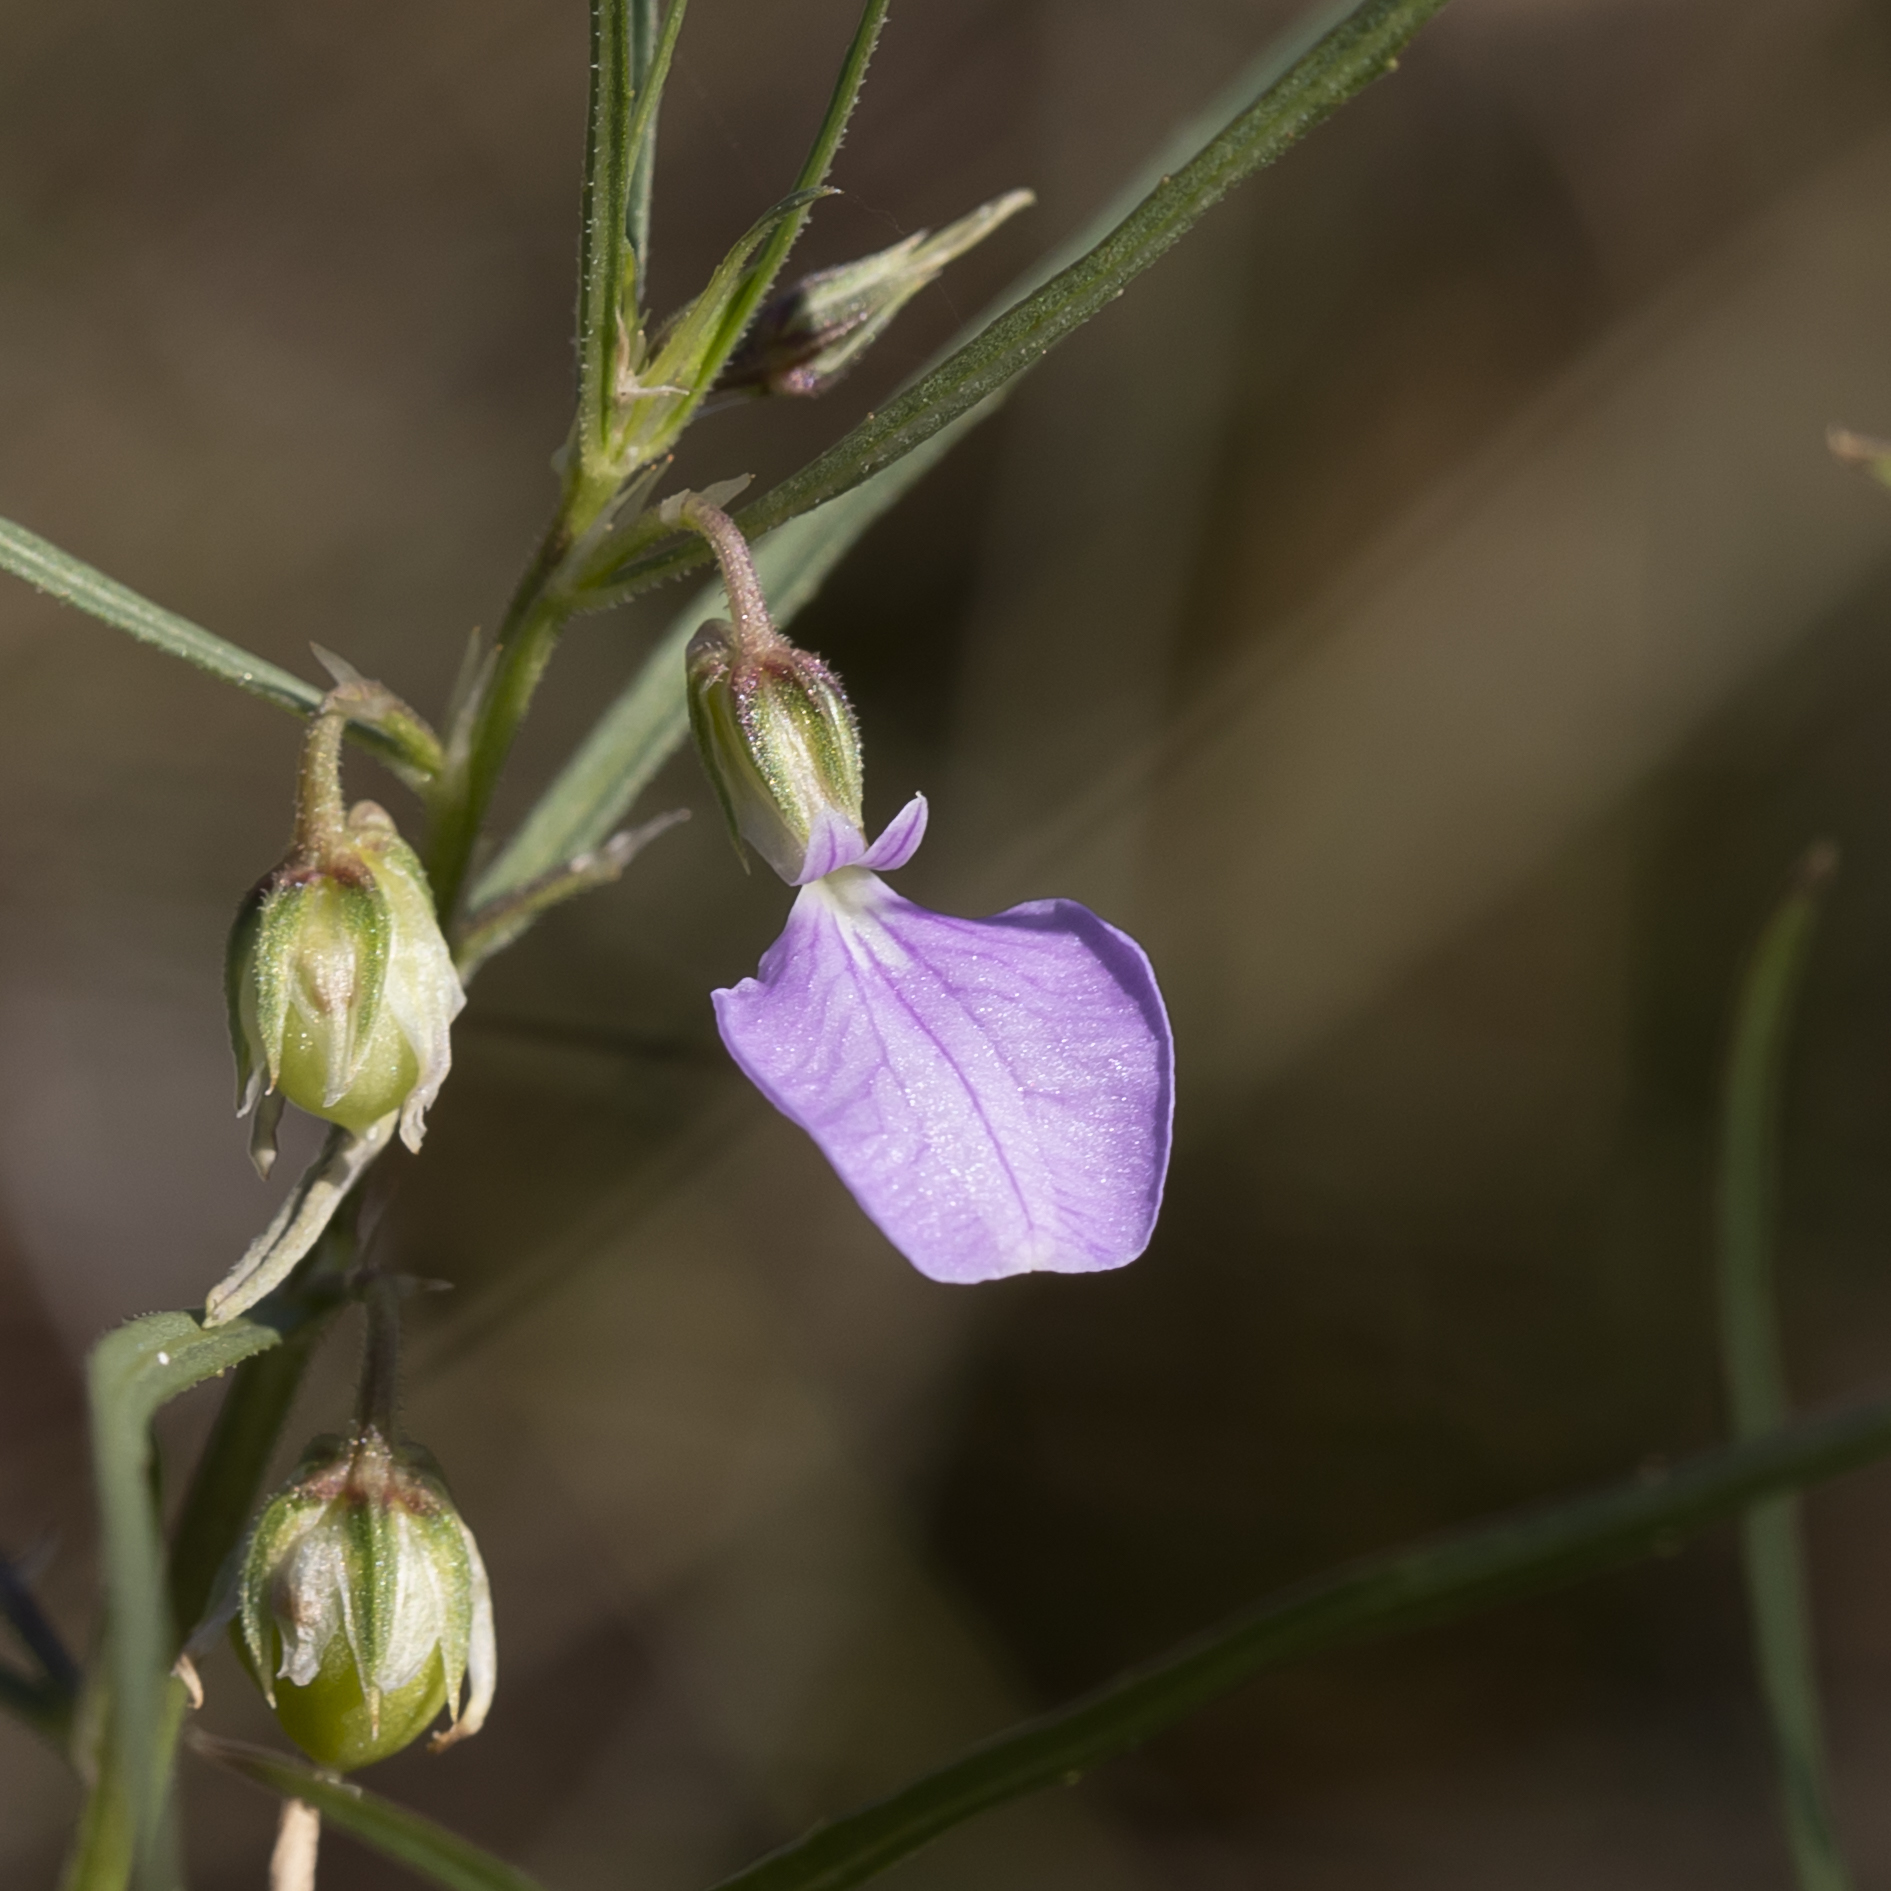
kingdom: Plantae
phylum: Tracheophyta
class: Magnoliopsida
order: Malpighiales
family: Violaceae
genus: Pigea
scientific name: Pigea enneasperma
